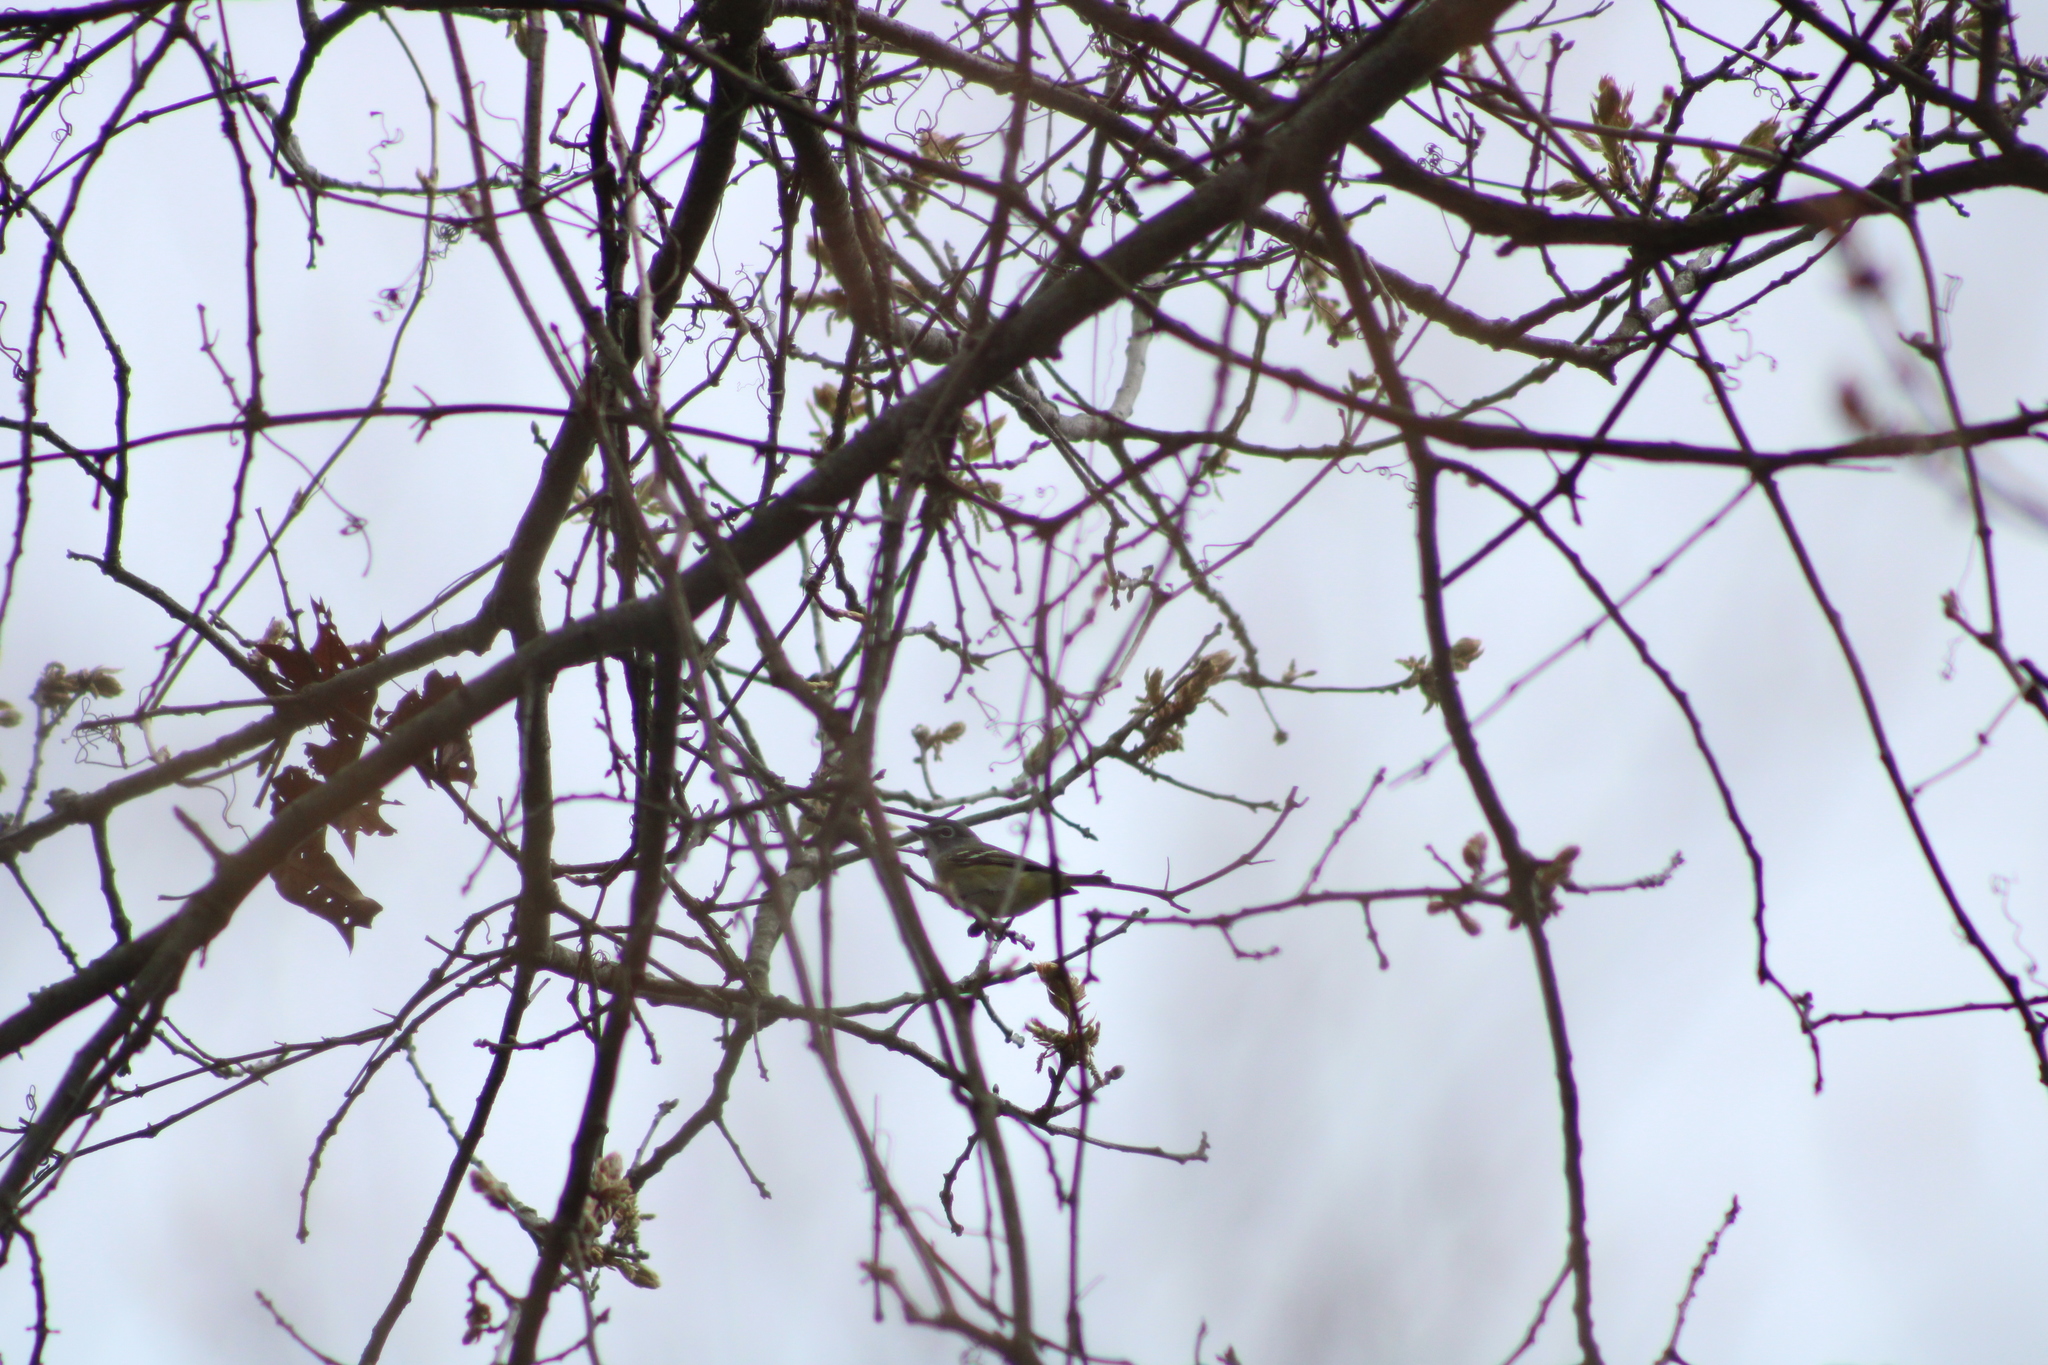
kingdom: Animalia
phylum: Chordata
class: Aves
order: Passeriformes
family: Vireonidae
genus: Vireo
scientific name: Vireo solitarius
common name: Blue-headed vireo
